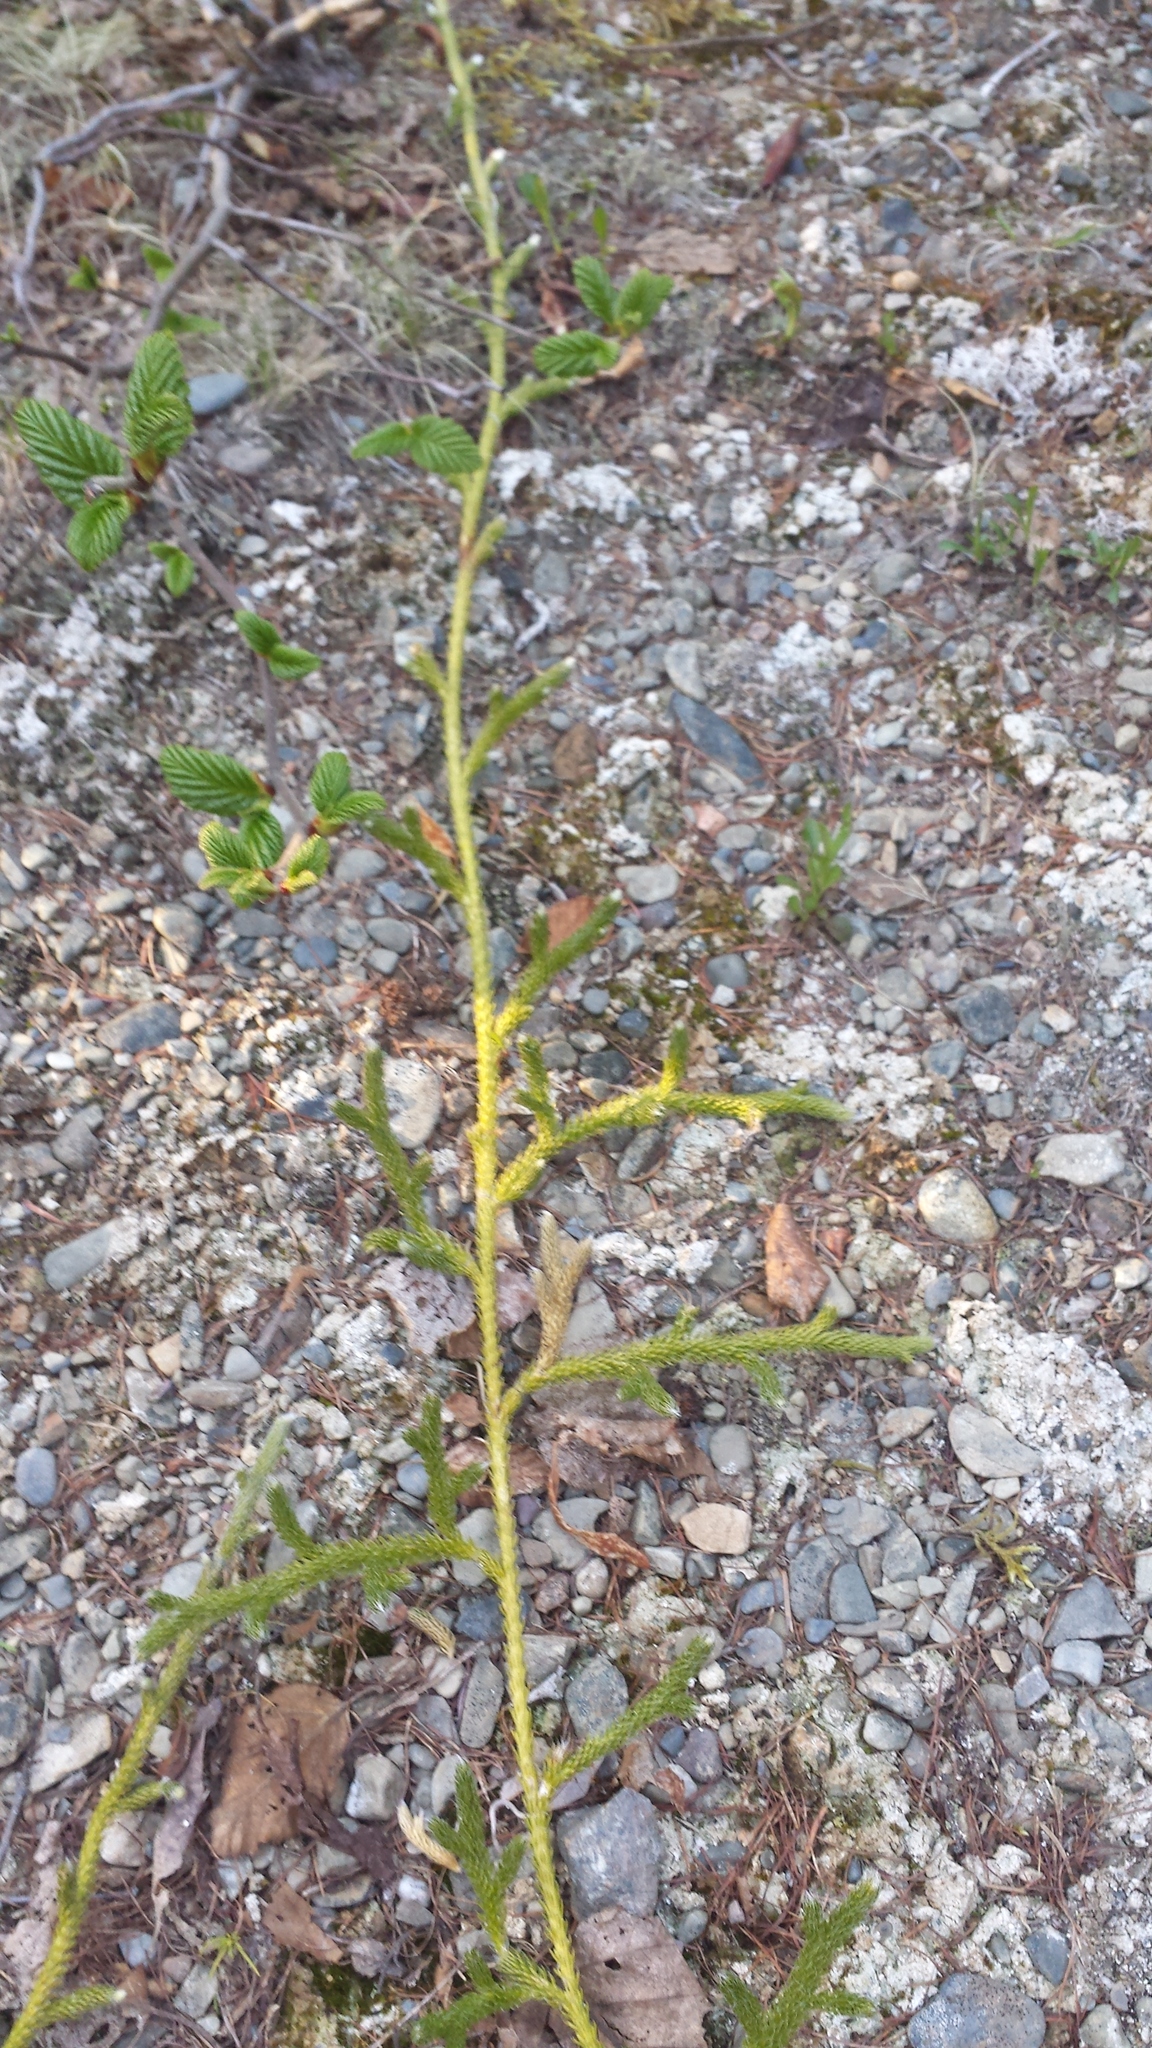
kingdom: Plantae
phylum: Tracheophyta
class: Lycopodiopsida
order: Lycopodiales
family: Lycopodiaceae
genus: Lycopodium
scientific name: Lycopodium clavatum
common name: Stag's-horn clubmoss
